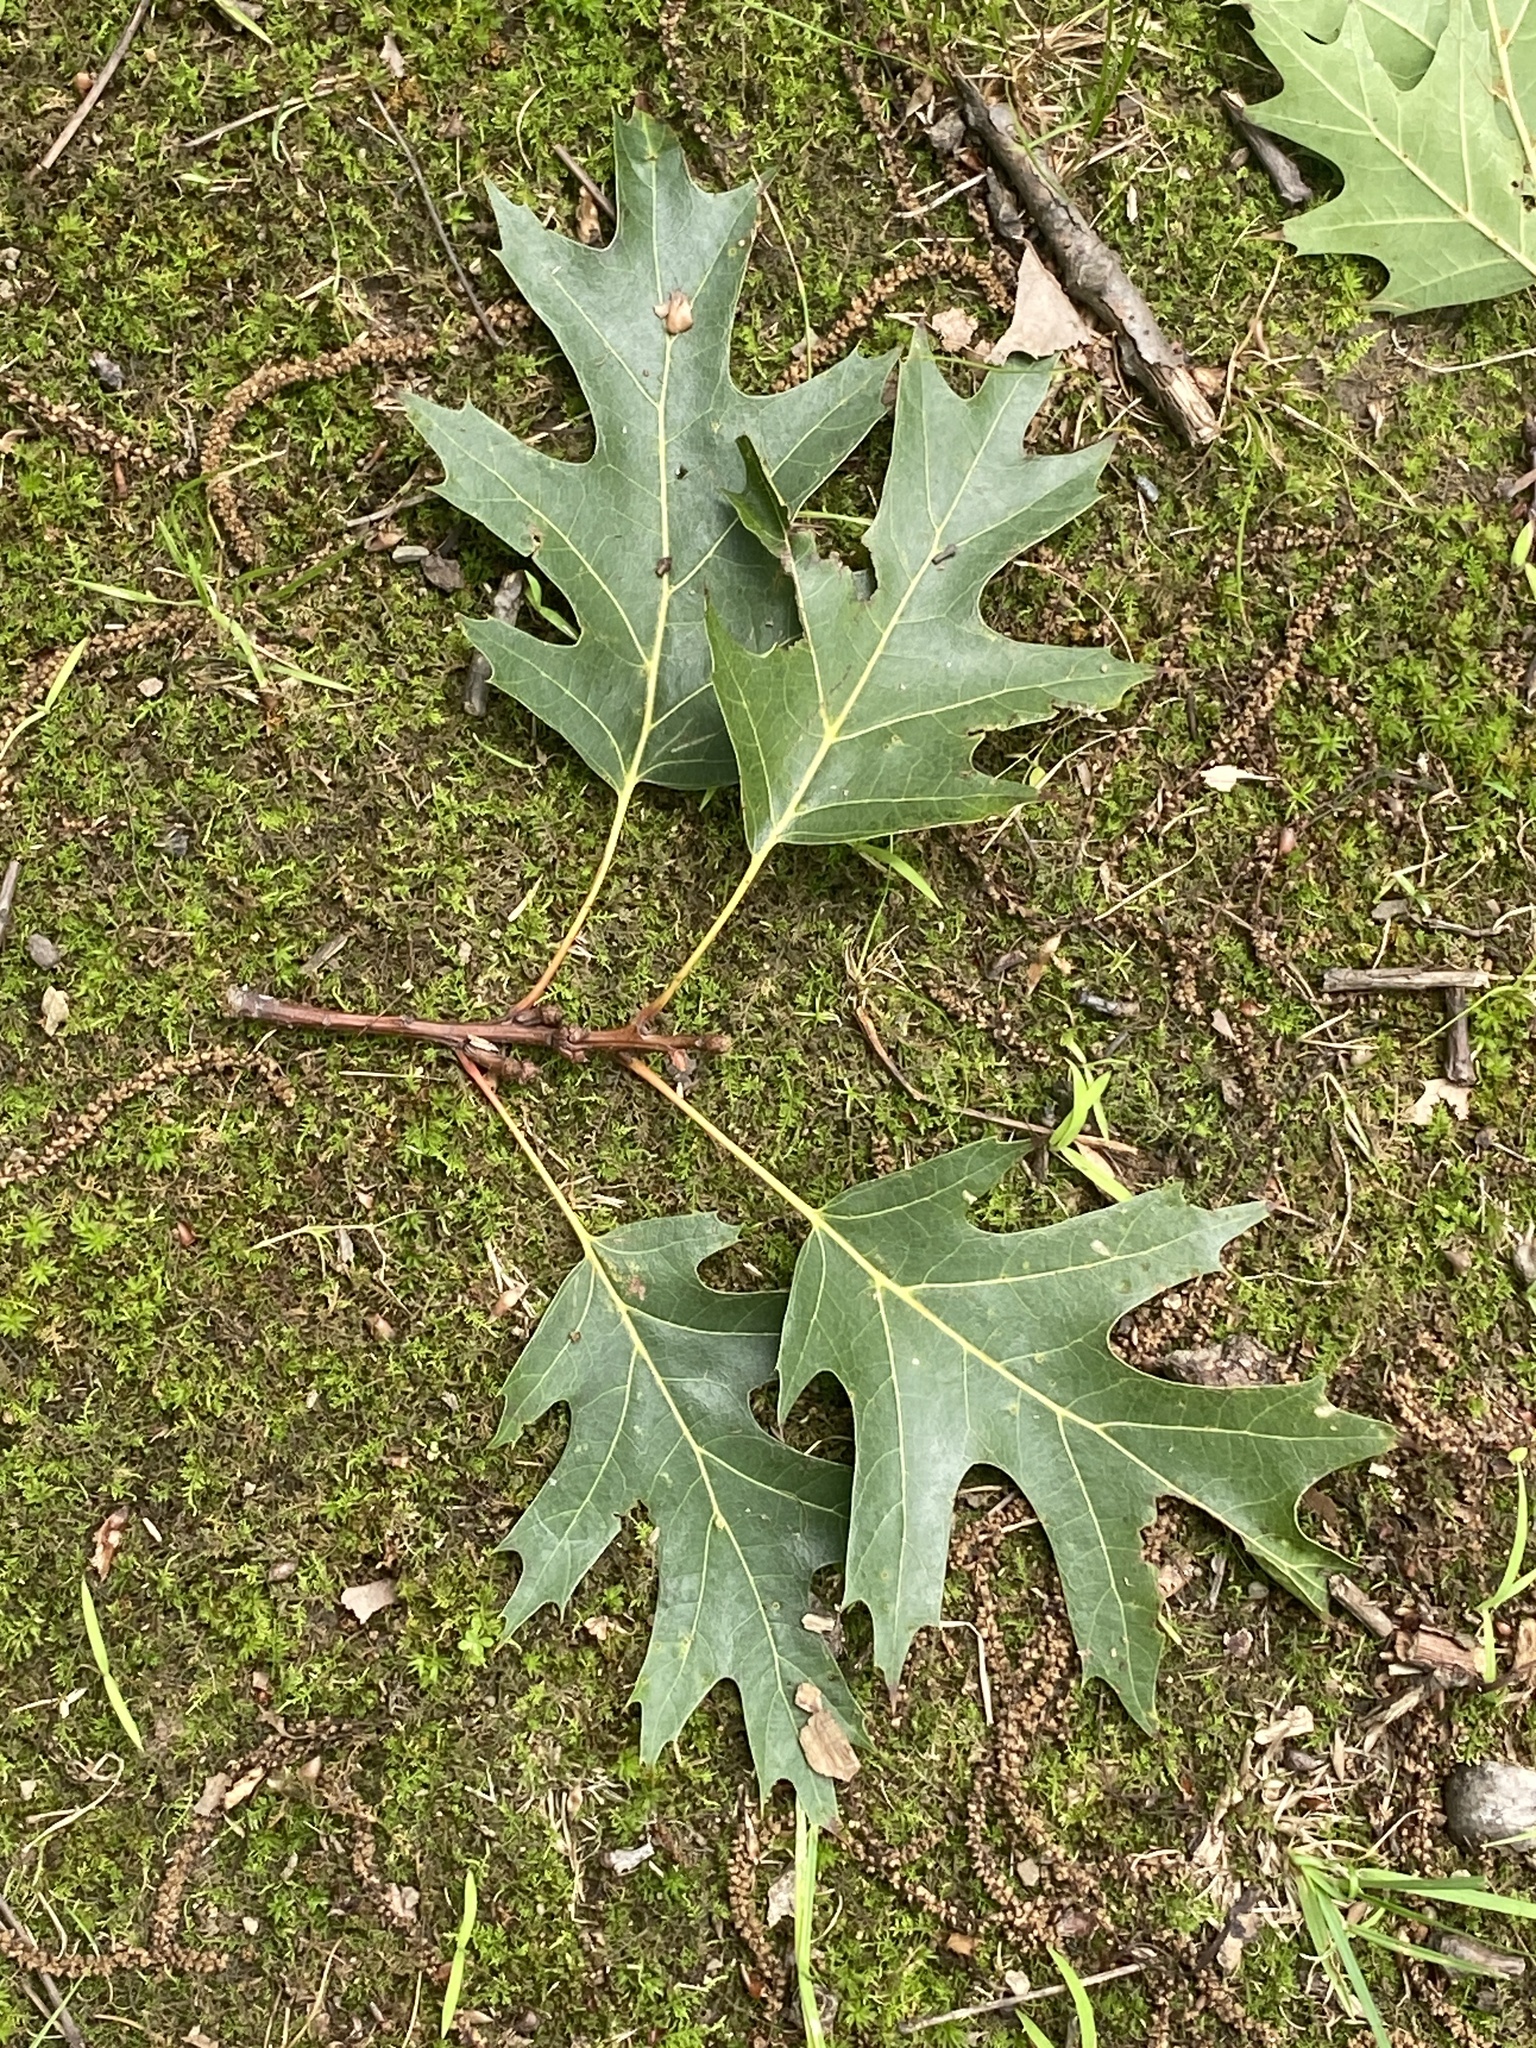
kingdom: Plantae
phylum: Tracheophyta
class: Magnoliopsida
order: Fagales
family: Fagaceae
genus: Quercus
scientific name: Quercus rubra
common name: Red oak
